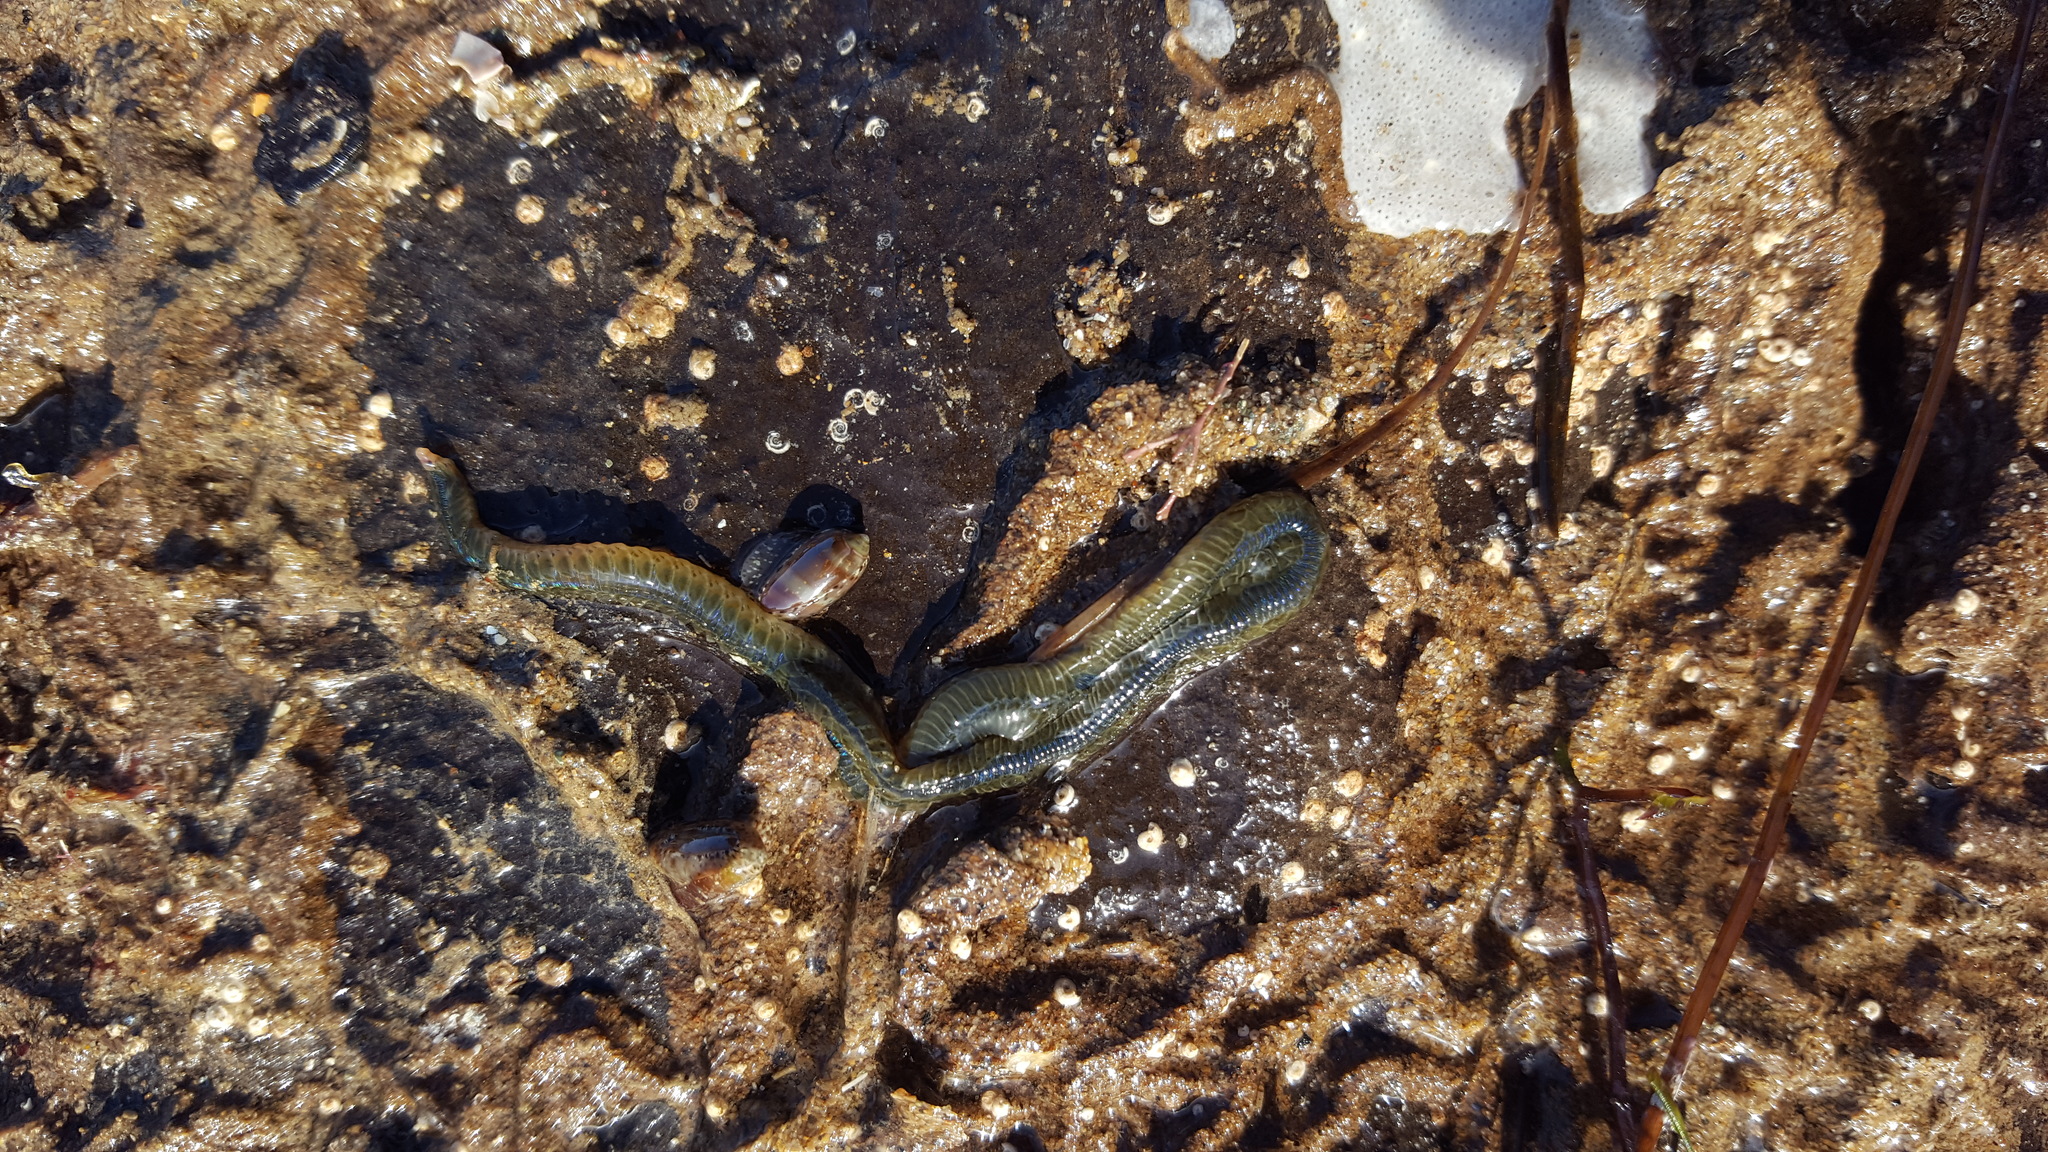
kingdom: Animalia
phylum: Annelida
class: Polychaeta
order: Phyllodocida
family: Phyllodocidae
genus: Phyllodoce
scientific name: Phyllodoce medipapillata
